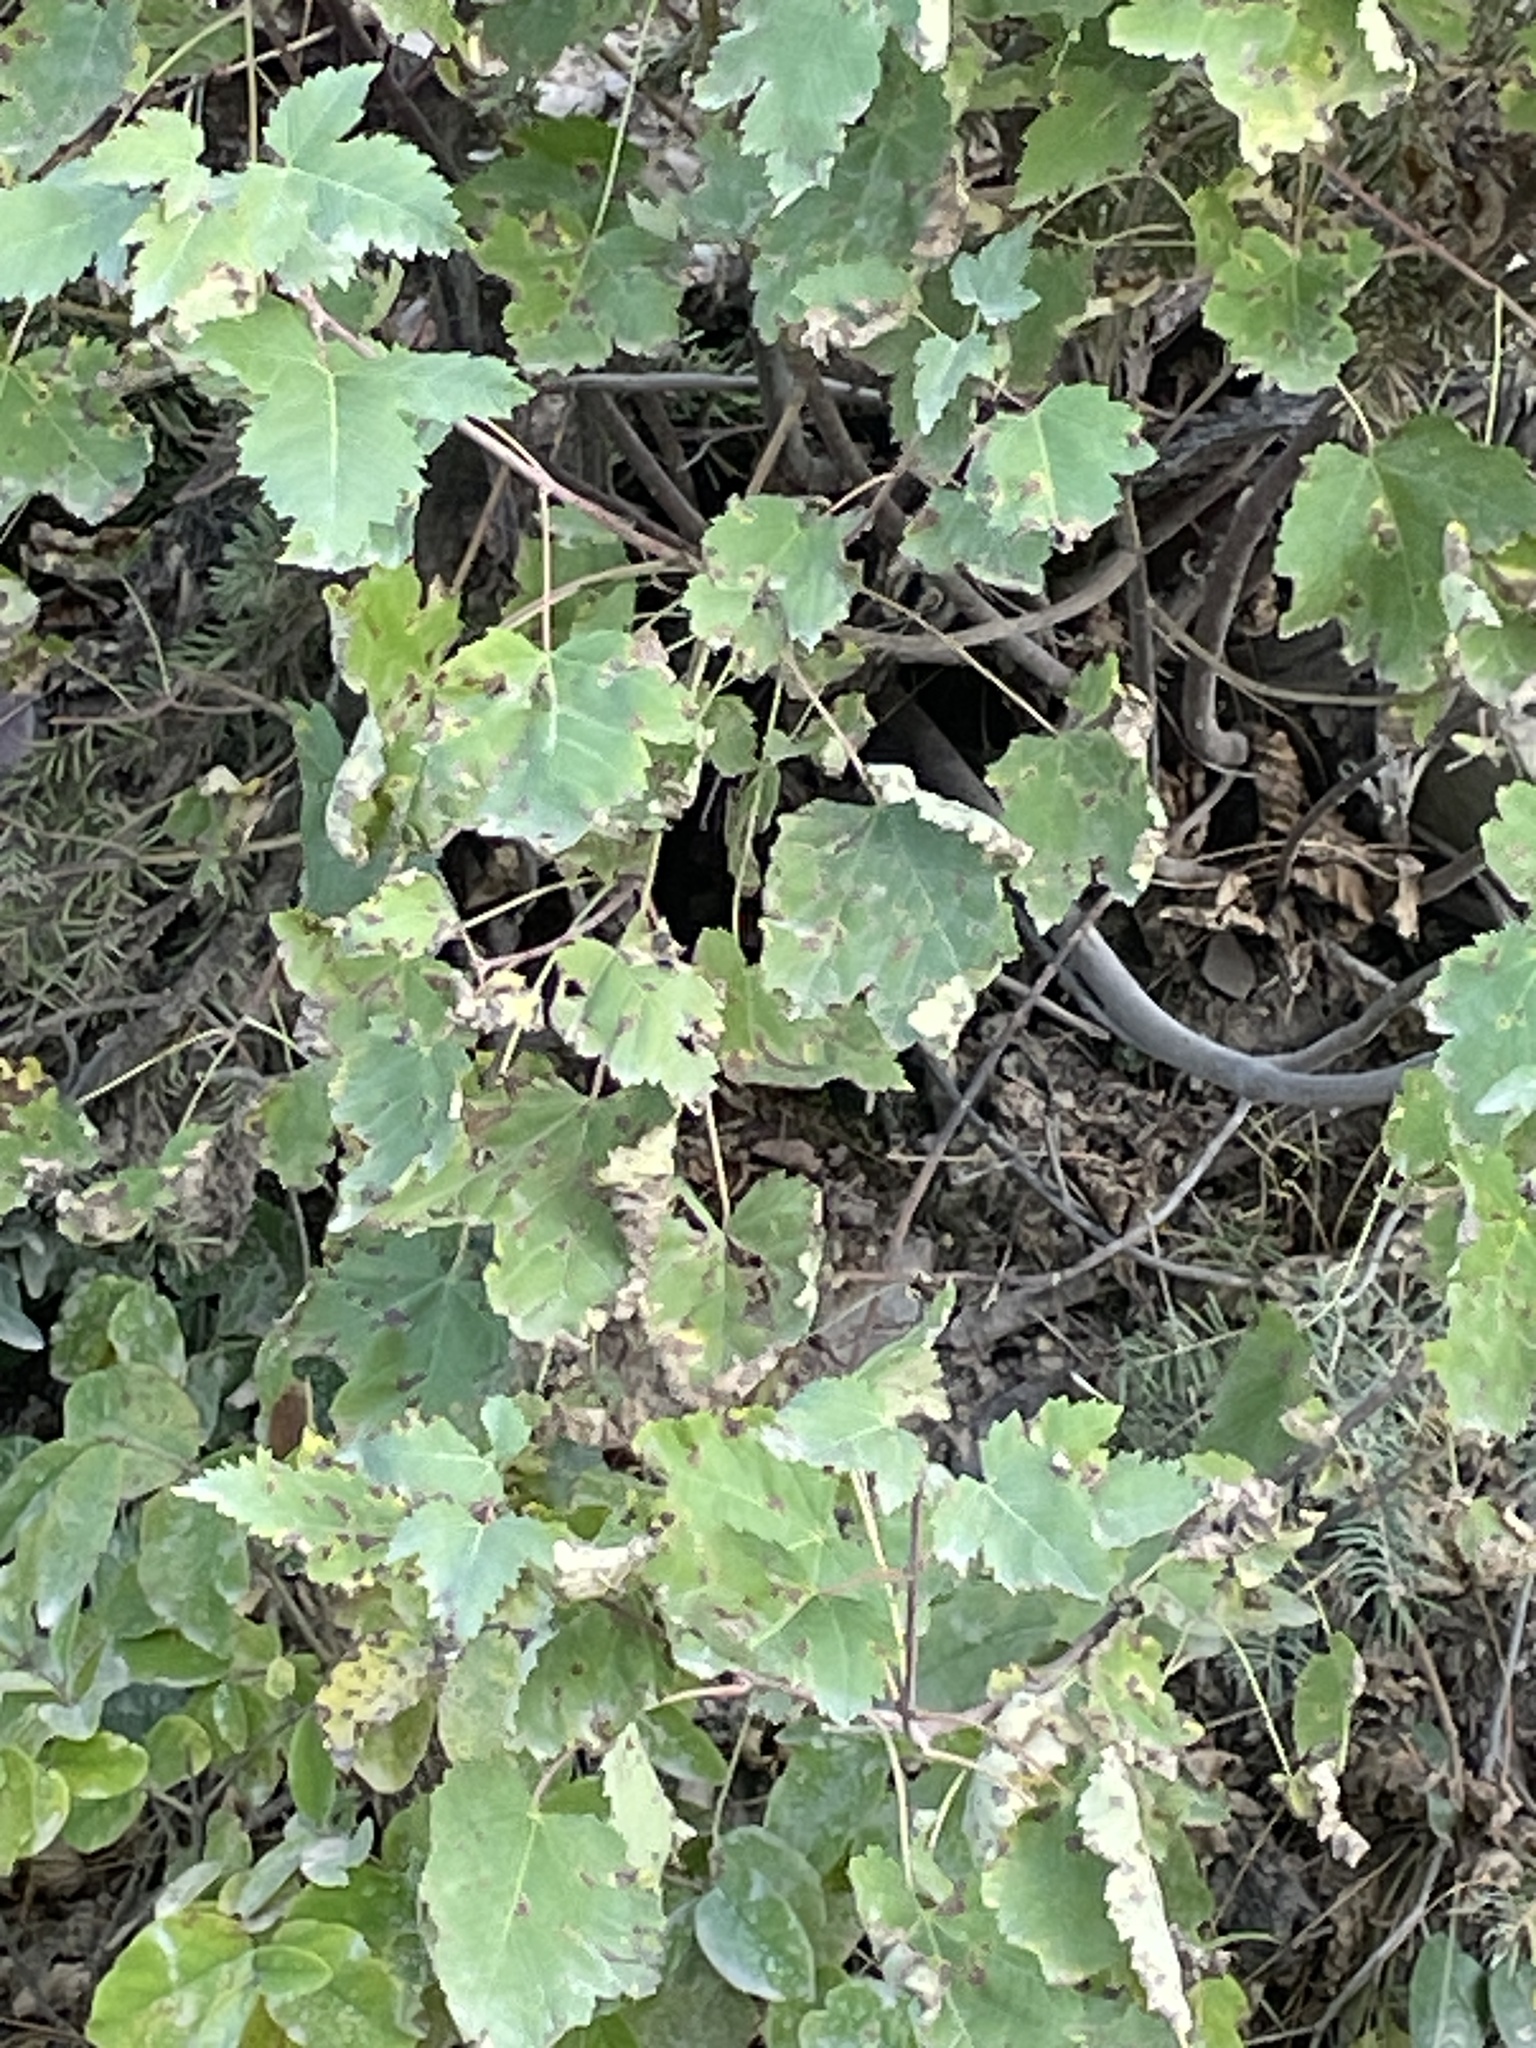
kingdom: Plantae
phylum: Tracheophyta
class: Magnoliopsida
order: Sapindales
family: Sapindaceae
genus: Acer
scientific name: Acer glabrum
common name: Rocky mountain maple
